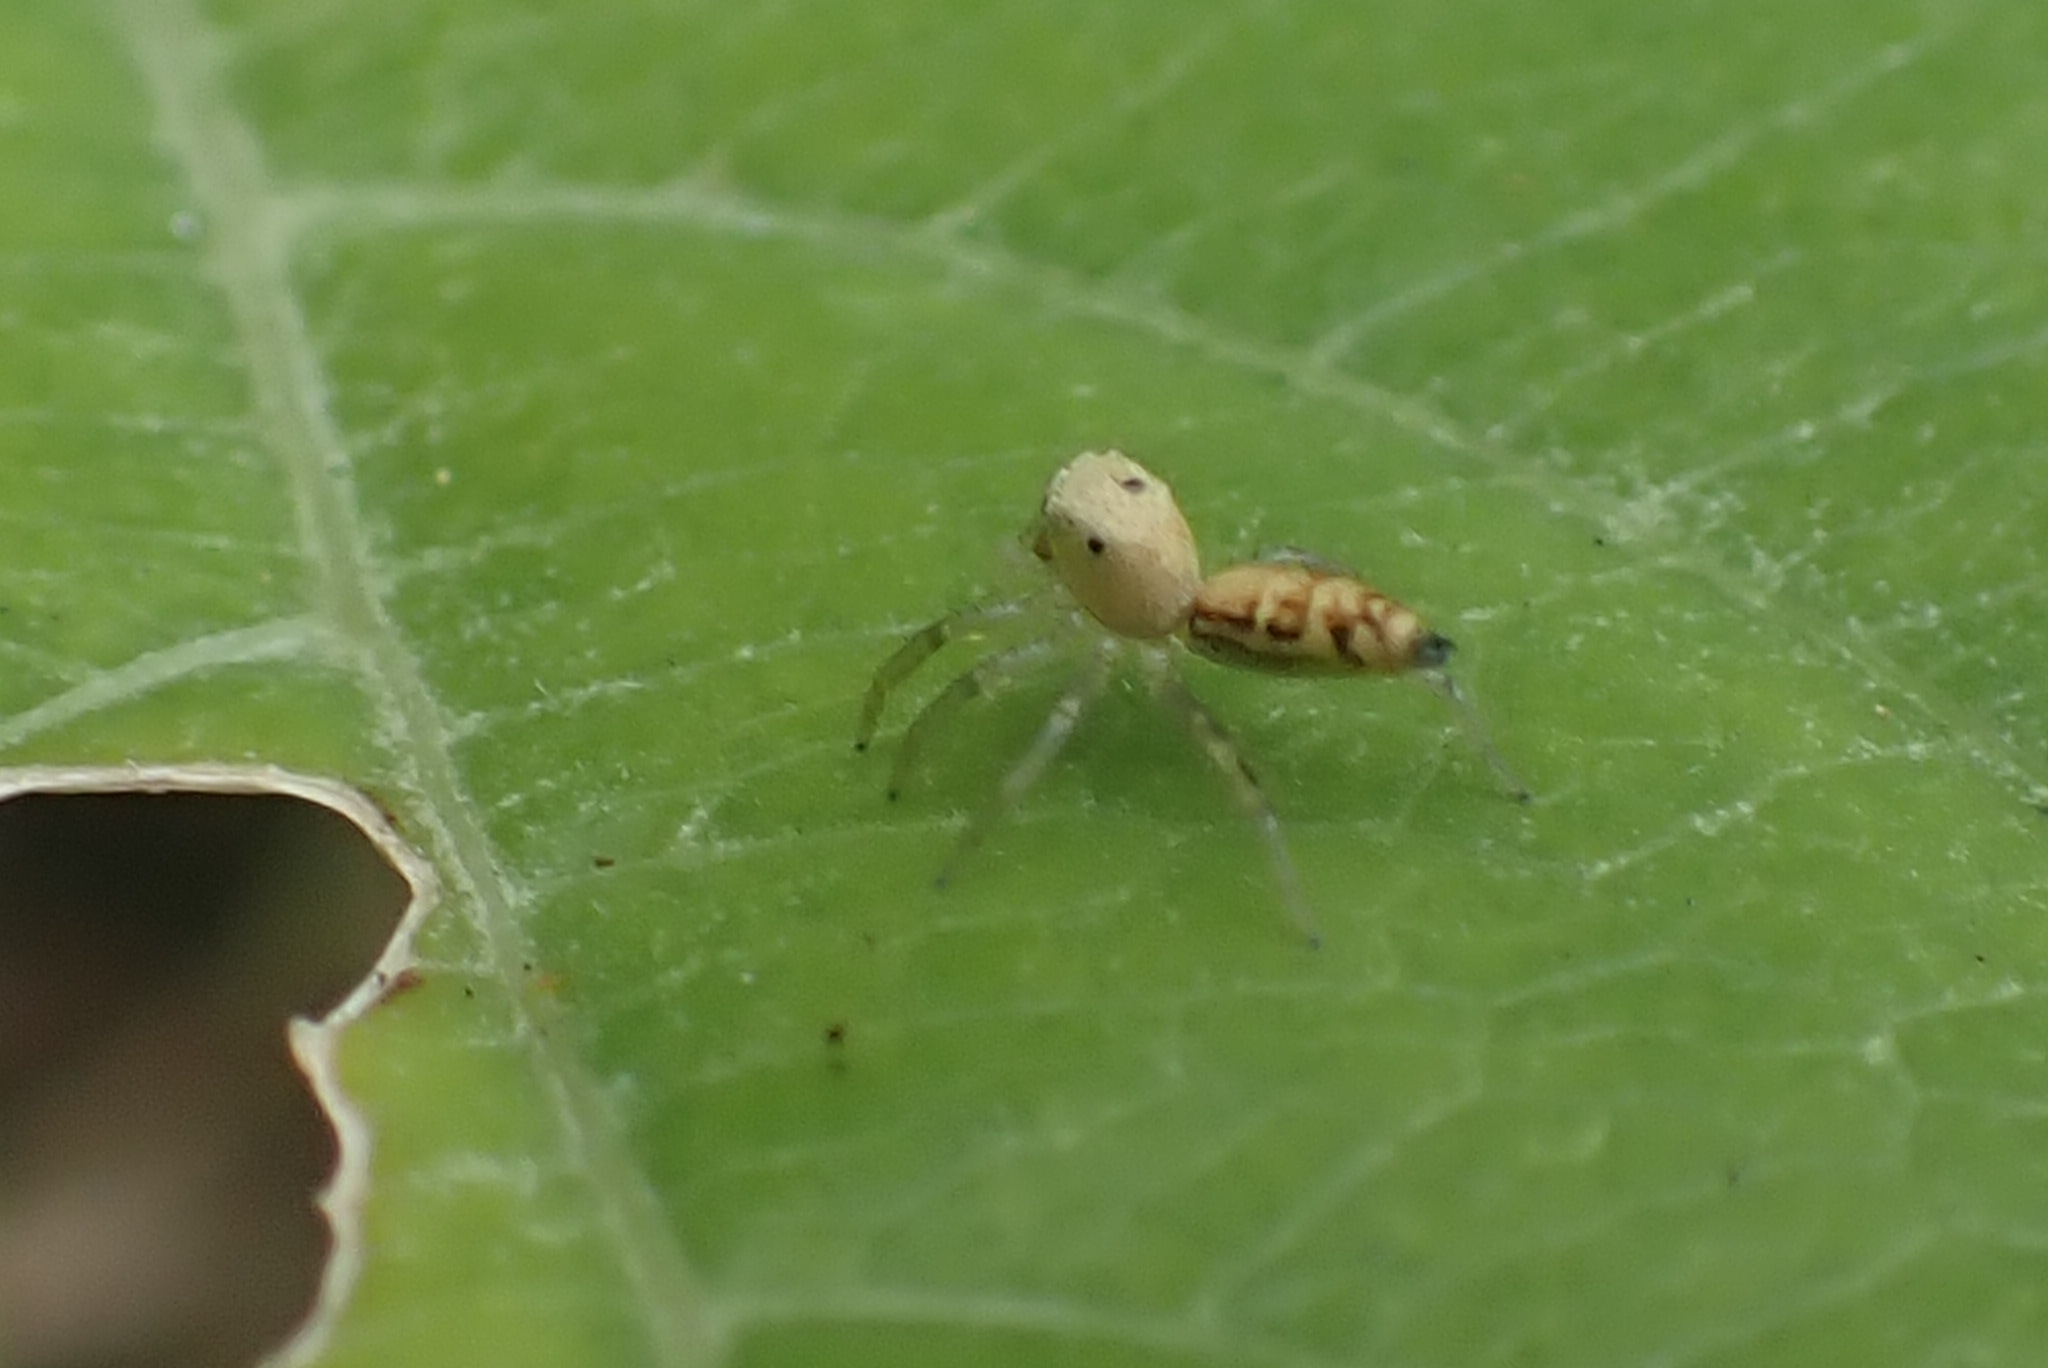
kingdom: Animalia
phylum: Arthropoda
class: Arachnida
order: Araneae
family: Salticidae
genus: Cosmophasis
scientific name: Cosmophasis lami
